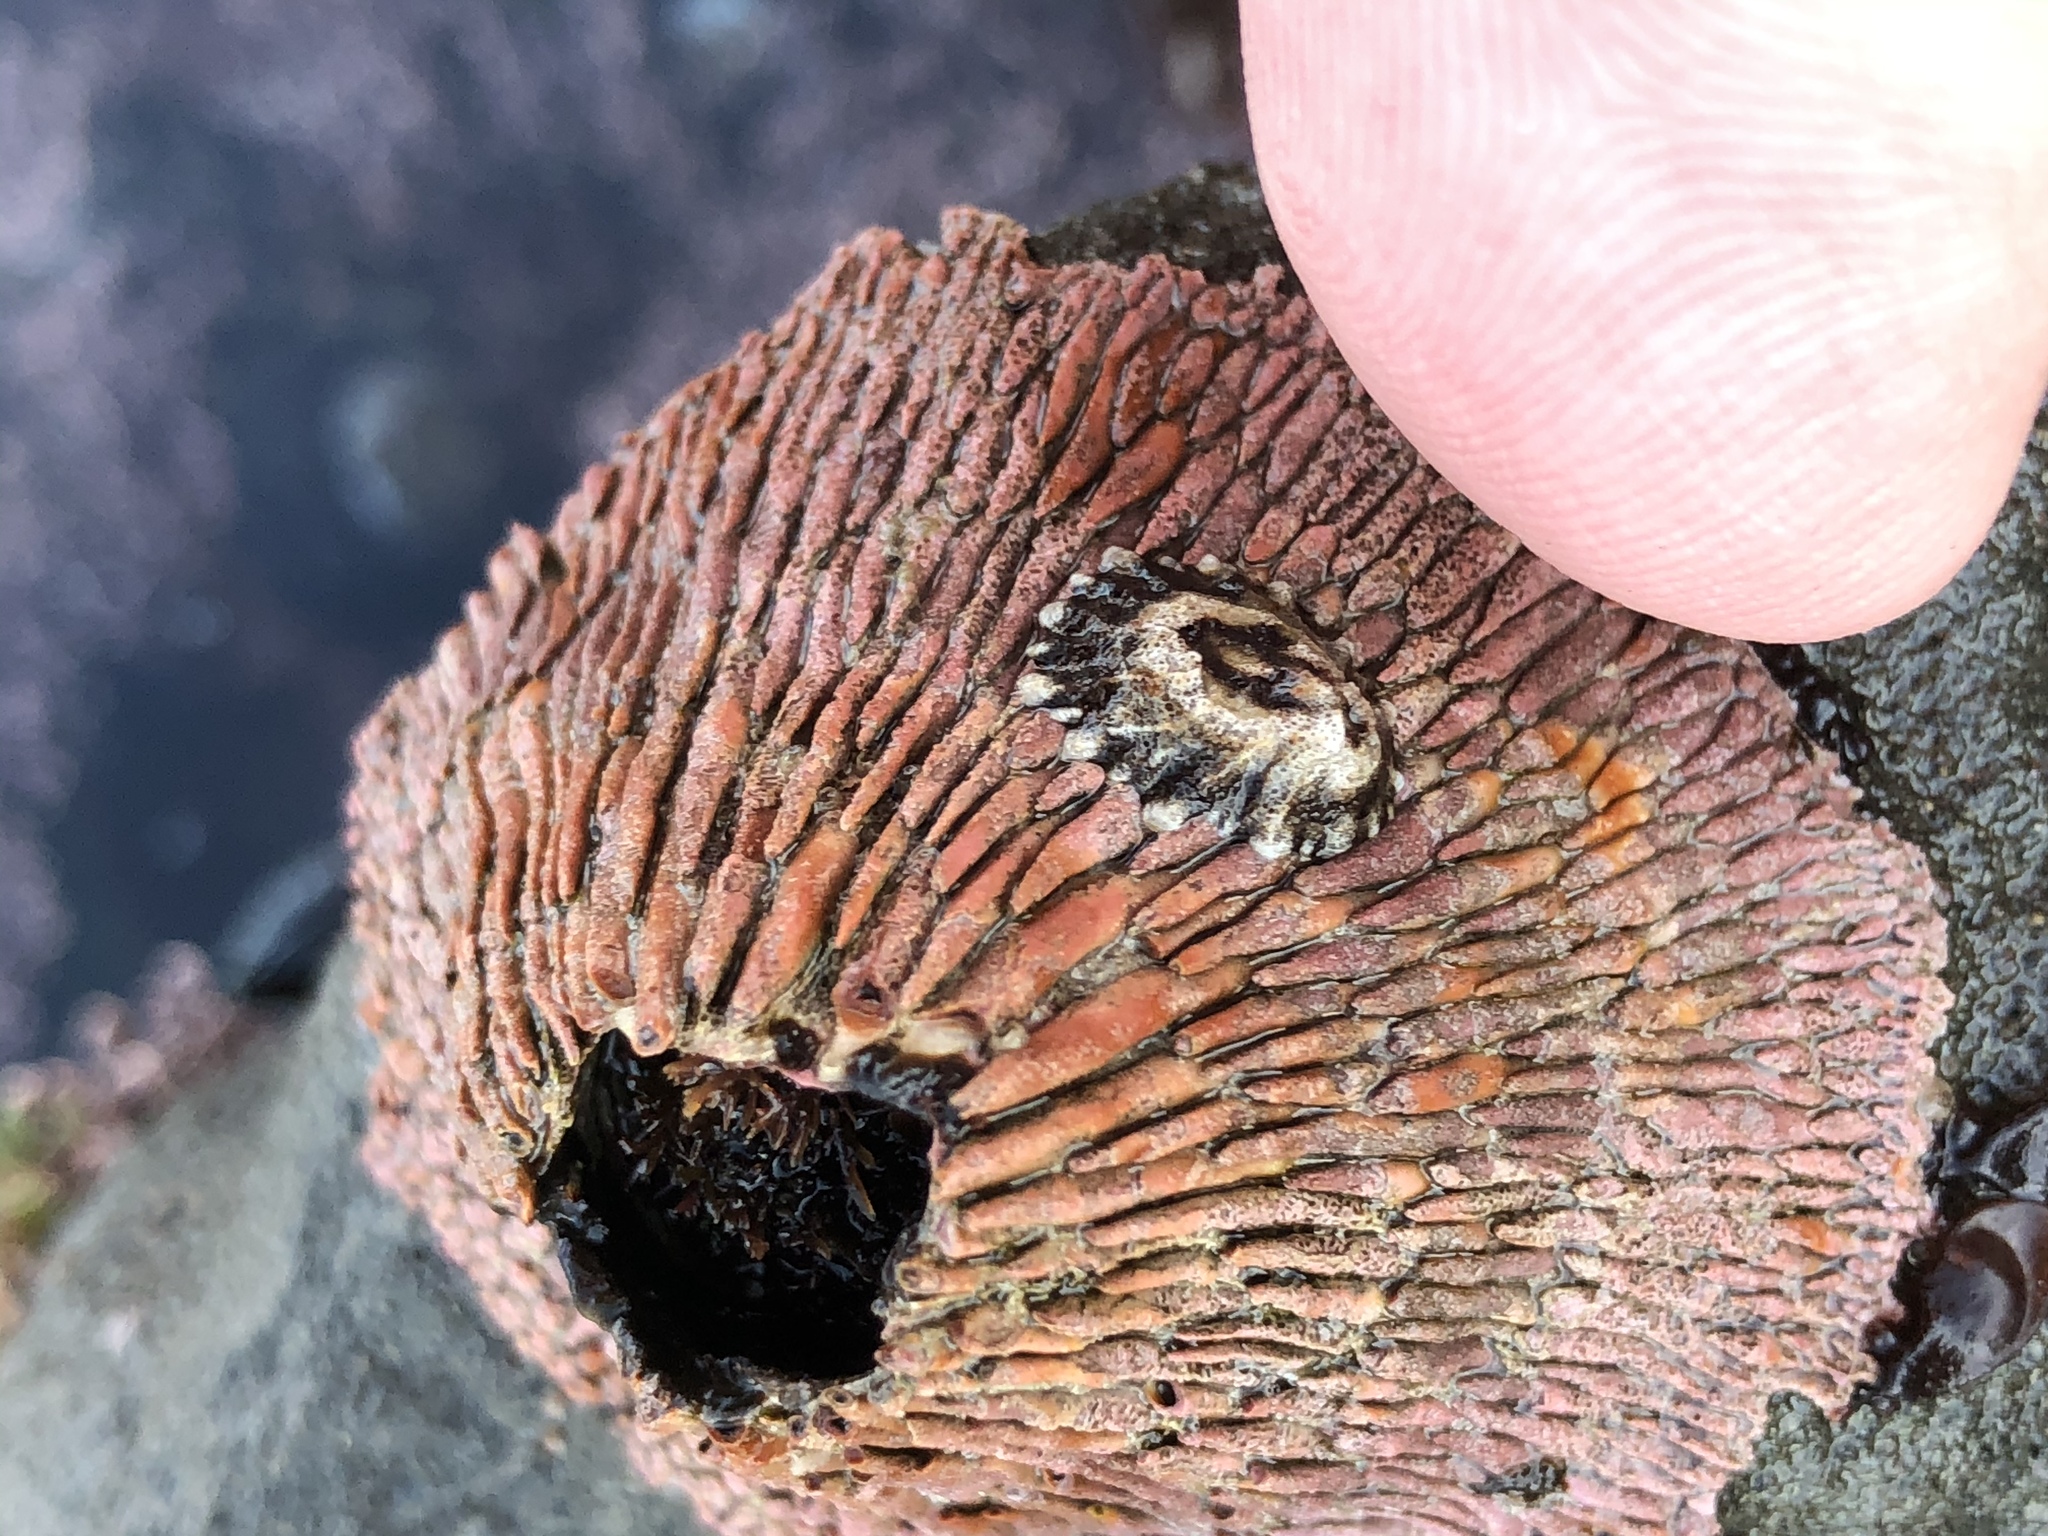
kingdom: Animalia
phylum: Arthropoda
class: Maxillopoda
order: Sessilia
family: Tetraclitidae
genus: Tetraclita
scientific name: Tetraclita rubescens
